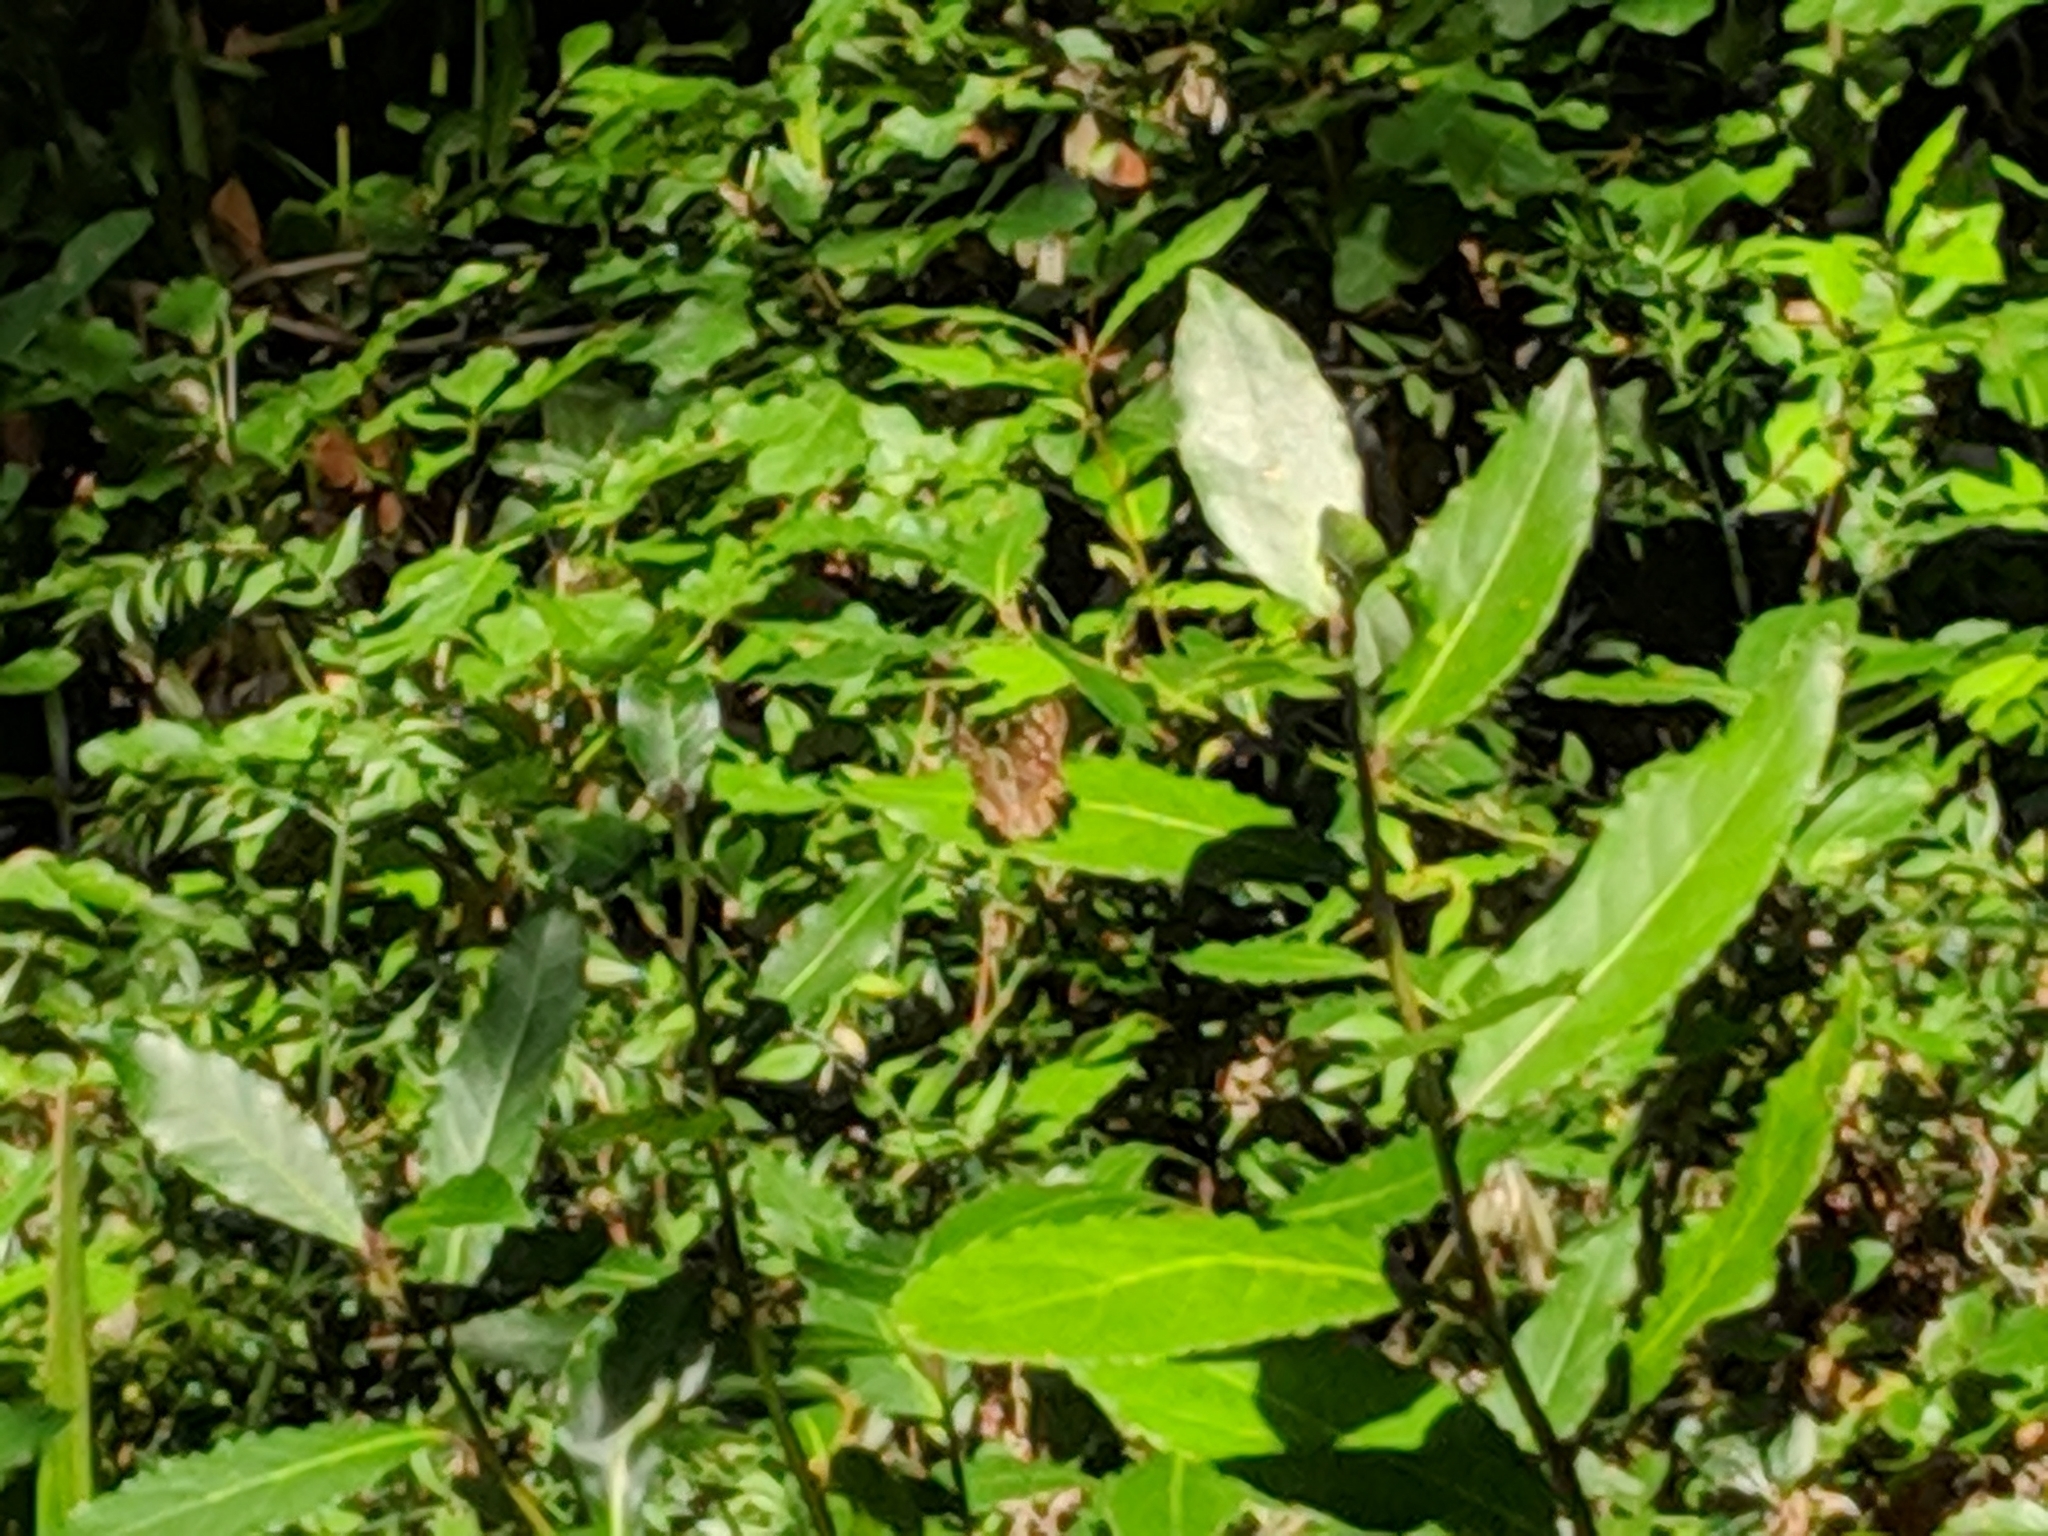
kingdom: Animalia
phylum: Arthropoda
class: Insecta
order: Lepidoptera
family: Nymphalidae
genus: Pararge
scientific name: Pararge aegeria
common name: Speckled wood
